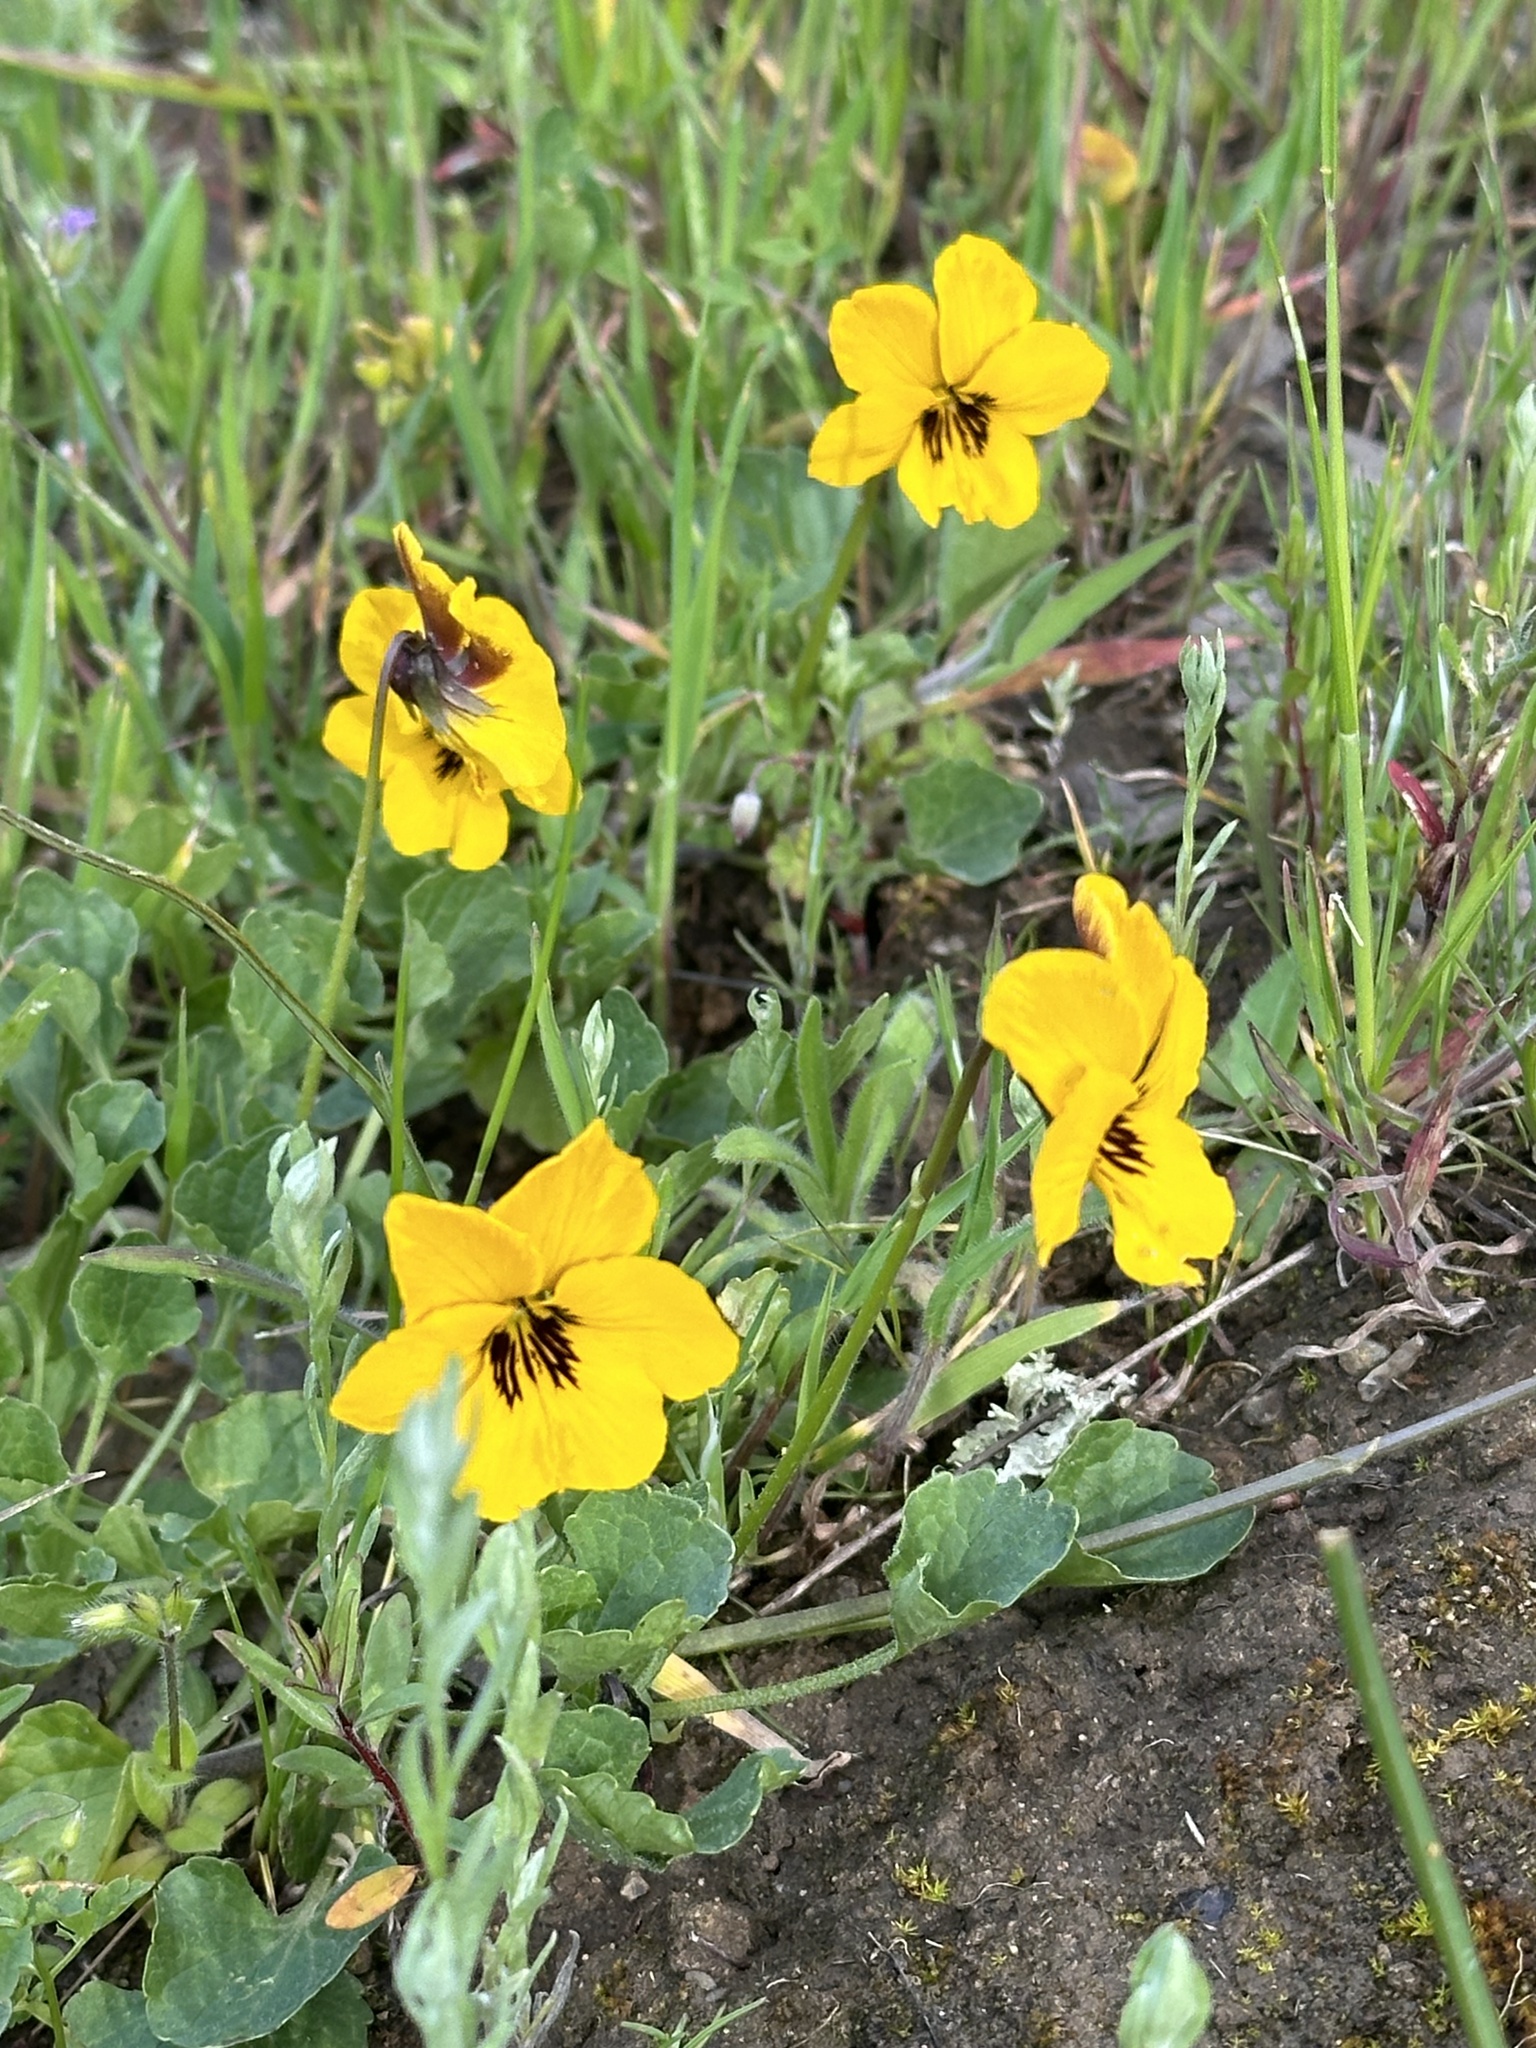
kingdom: Plantae
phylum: Tracheophyta
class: Magnoliopsida
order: Malpighiales
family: Violaceae
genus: Viola
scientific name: Viola pedunculata
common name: California golden violet
